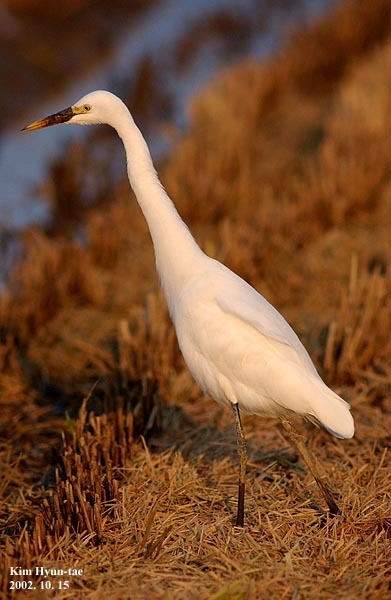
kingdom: Animalia
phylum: Chordata
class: Aves
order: Pelecaniformes
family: Ardeidae
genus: Egretta
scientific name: Egretta intermedia
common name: Intermediate egret
